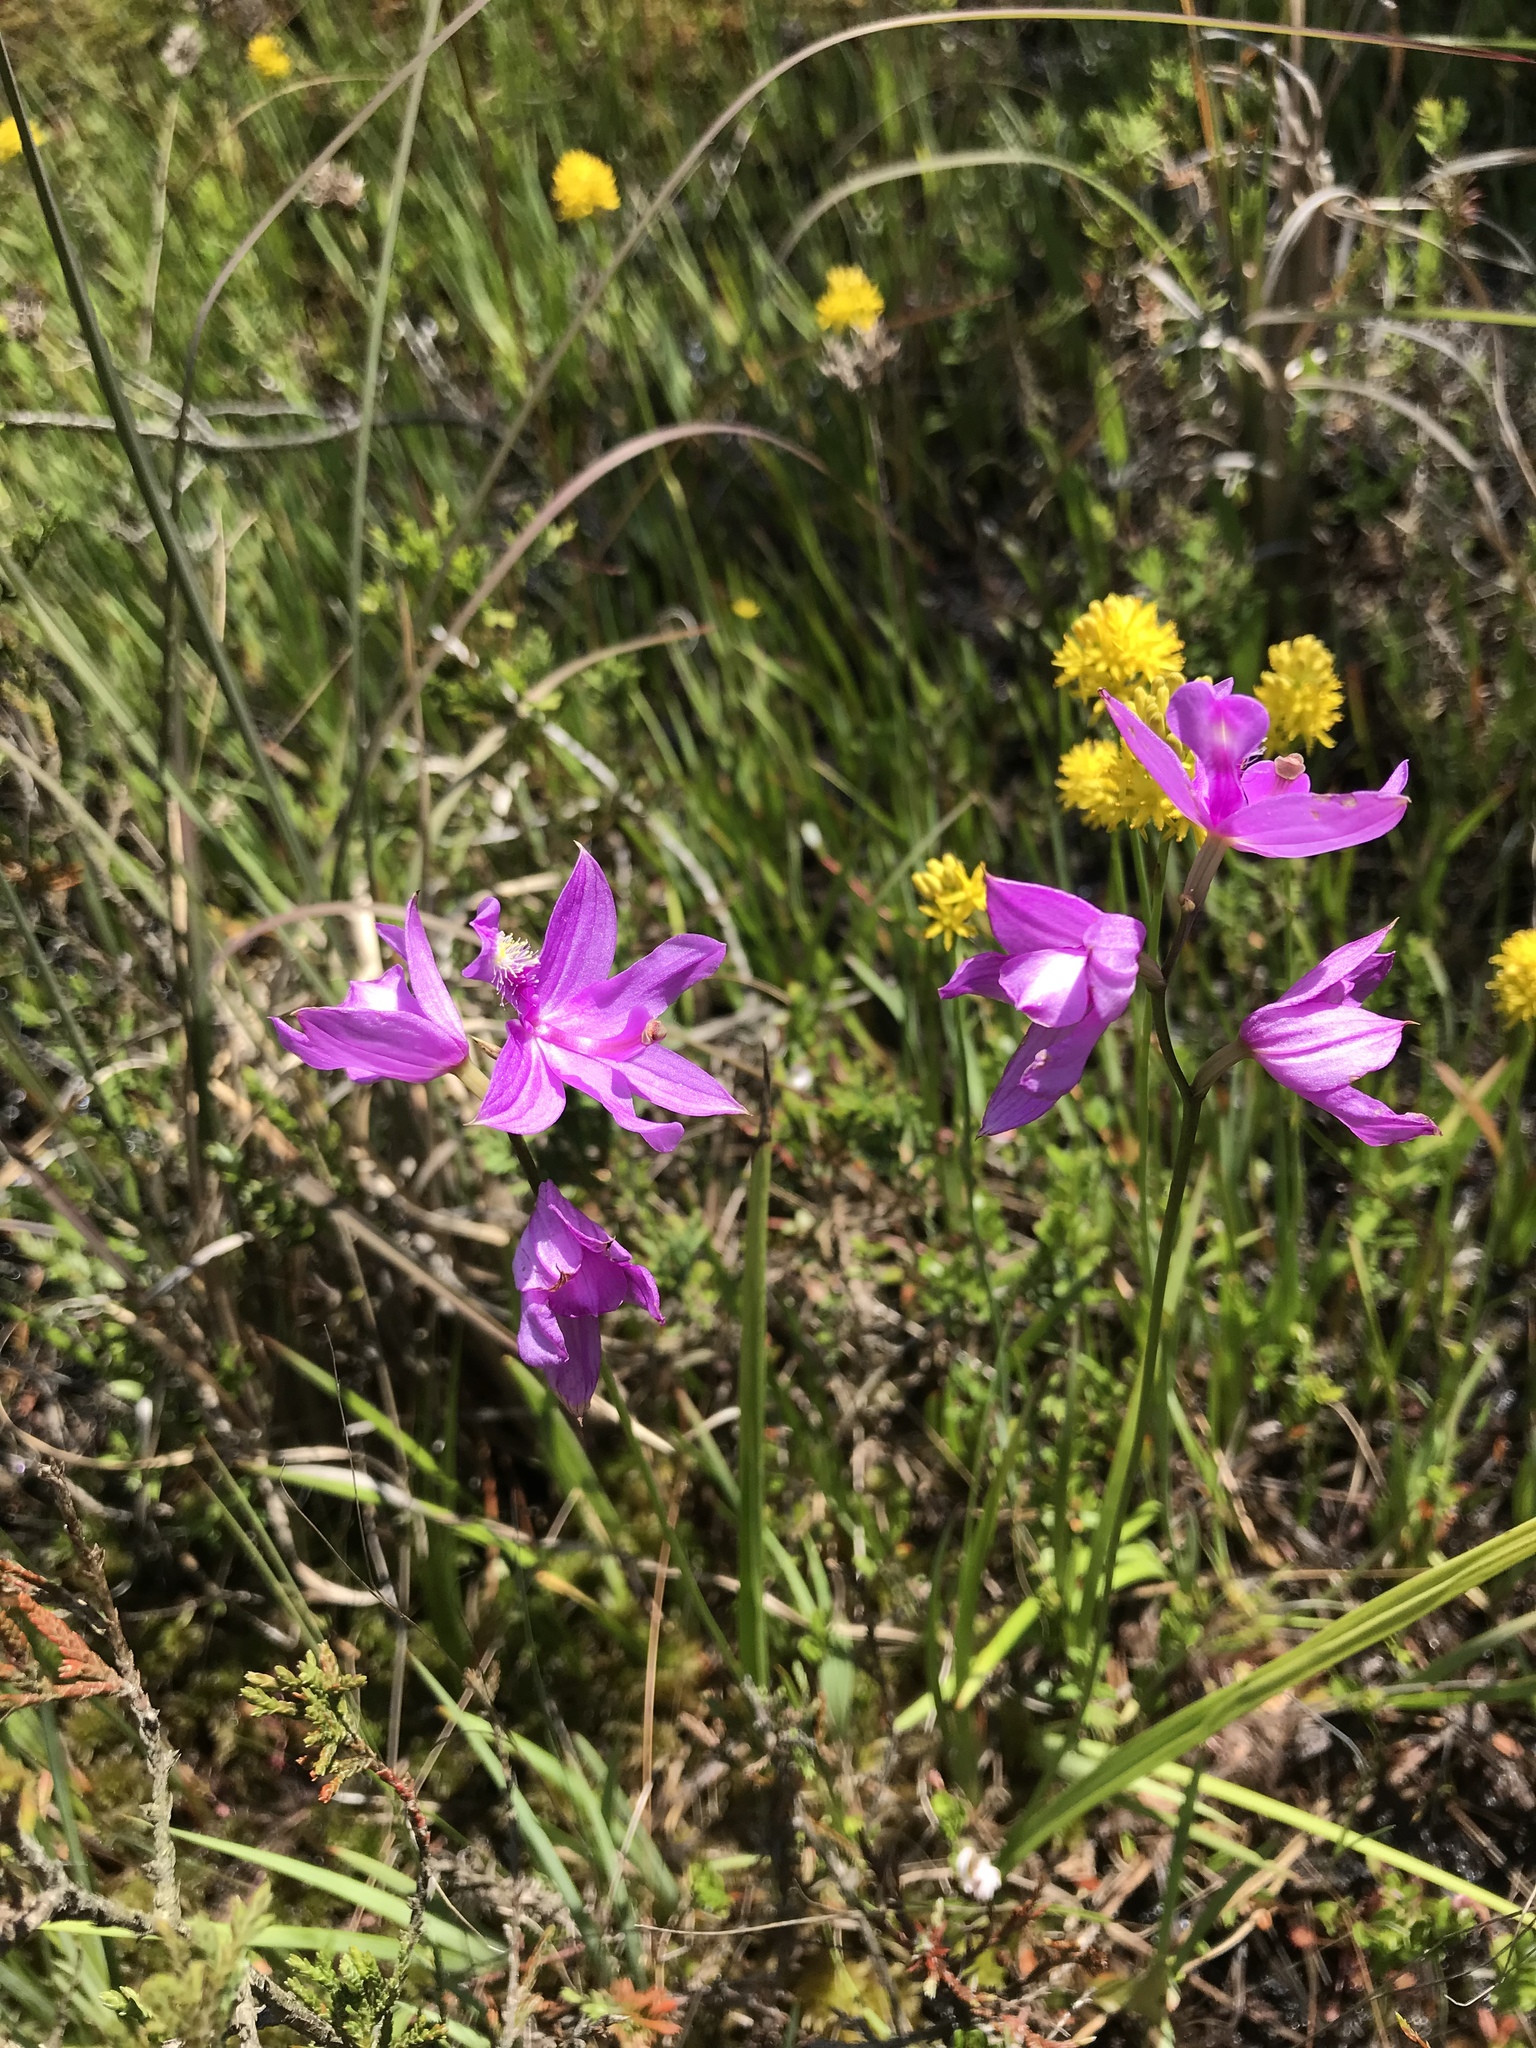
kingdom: Plantae
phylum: Tracheophyta
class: Liliopsida
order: Asparagales
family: Orchidaceae
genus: Calopogon
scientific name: Calopogon tuberosus
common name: Grass-pink
